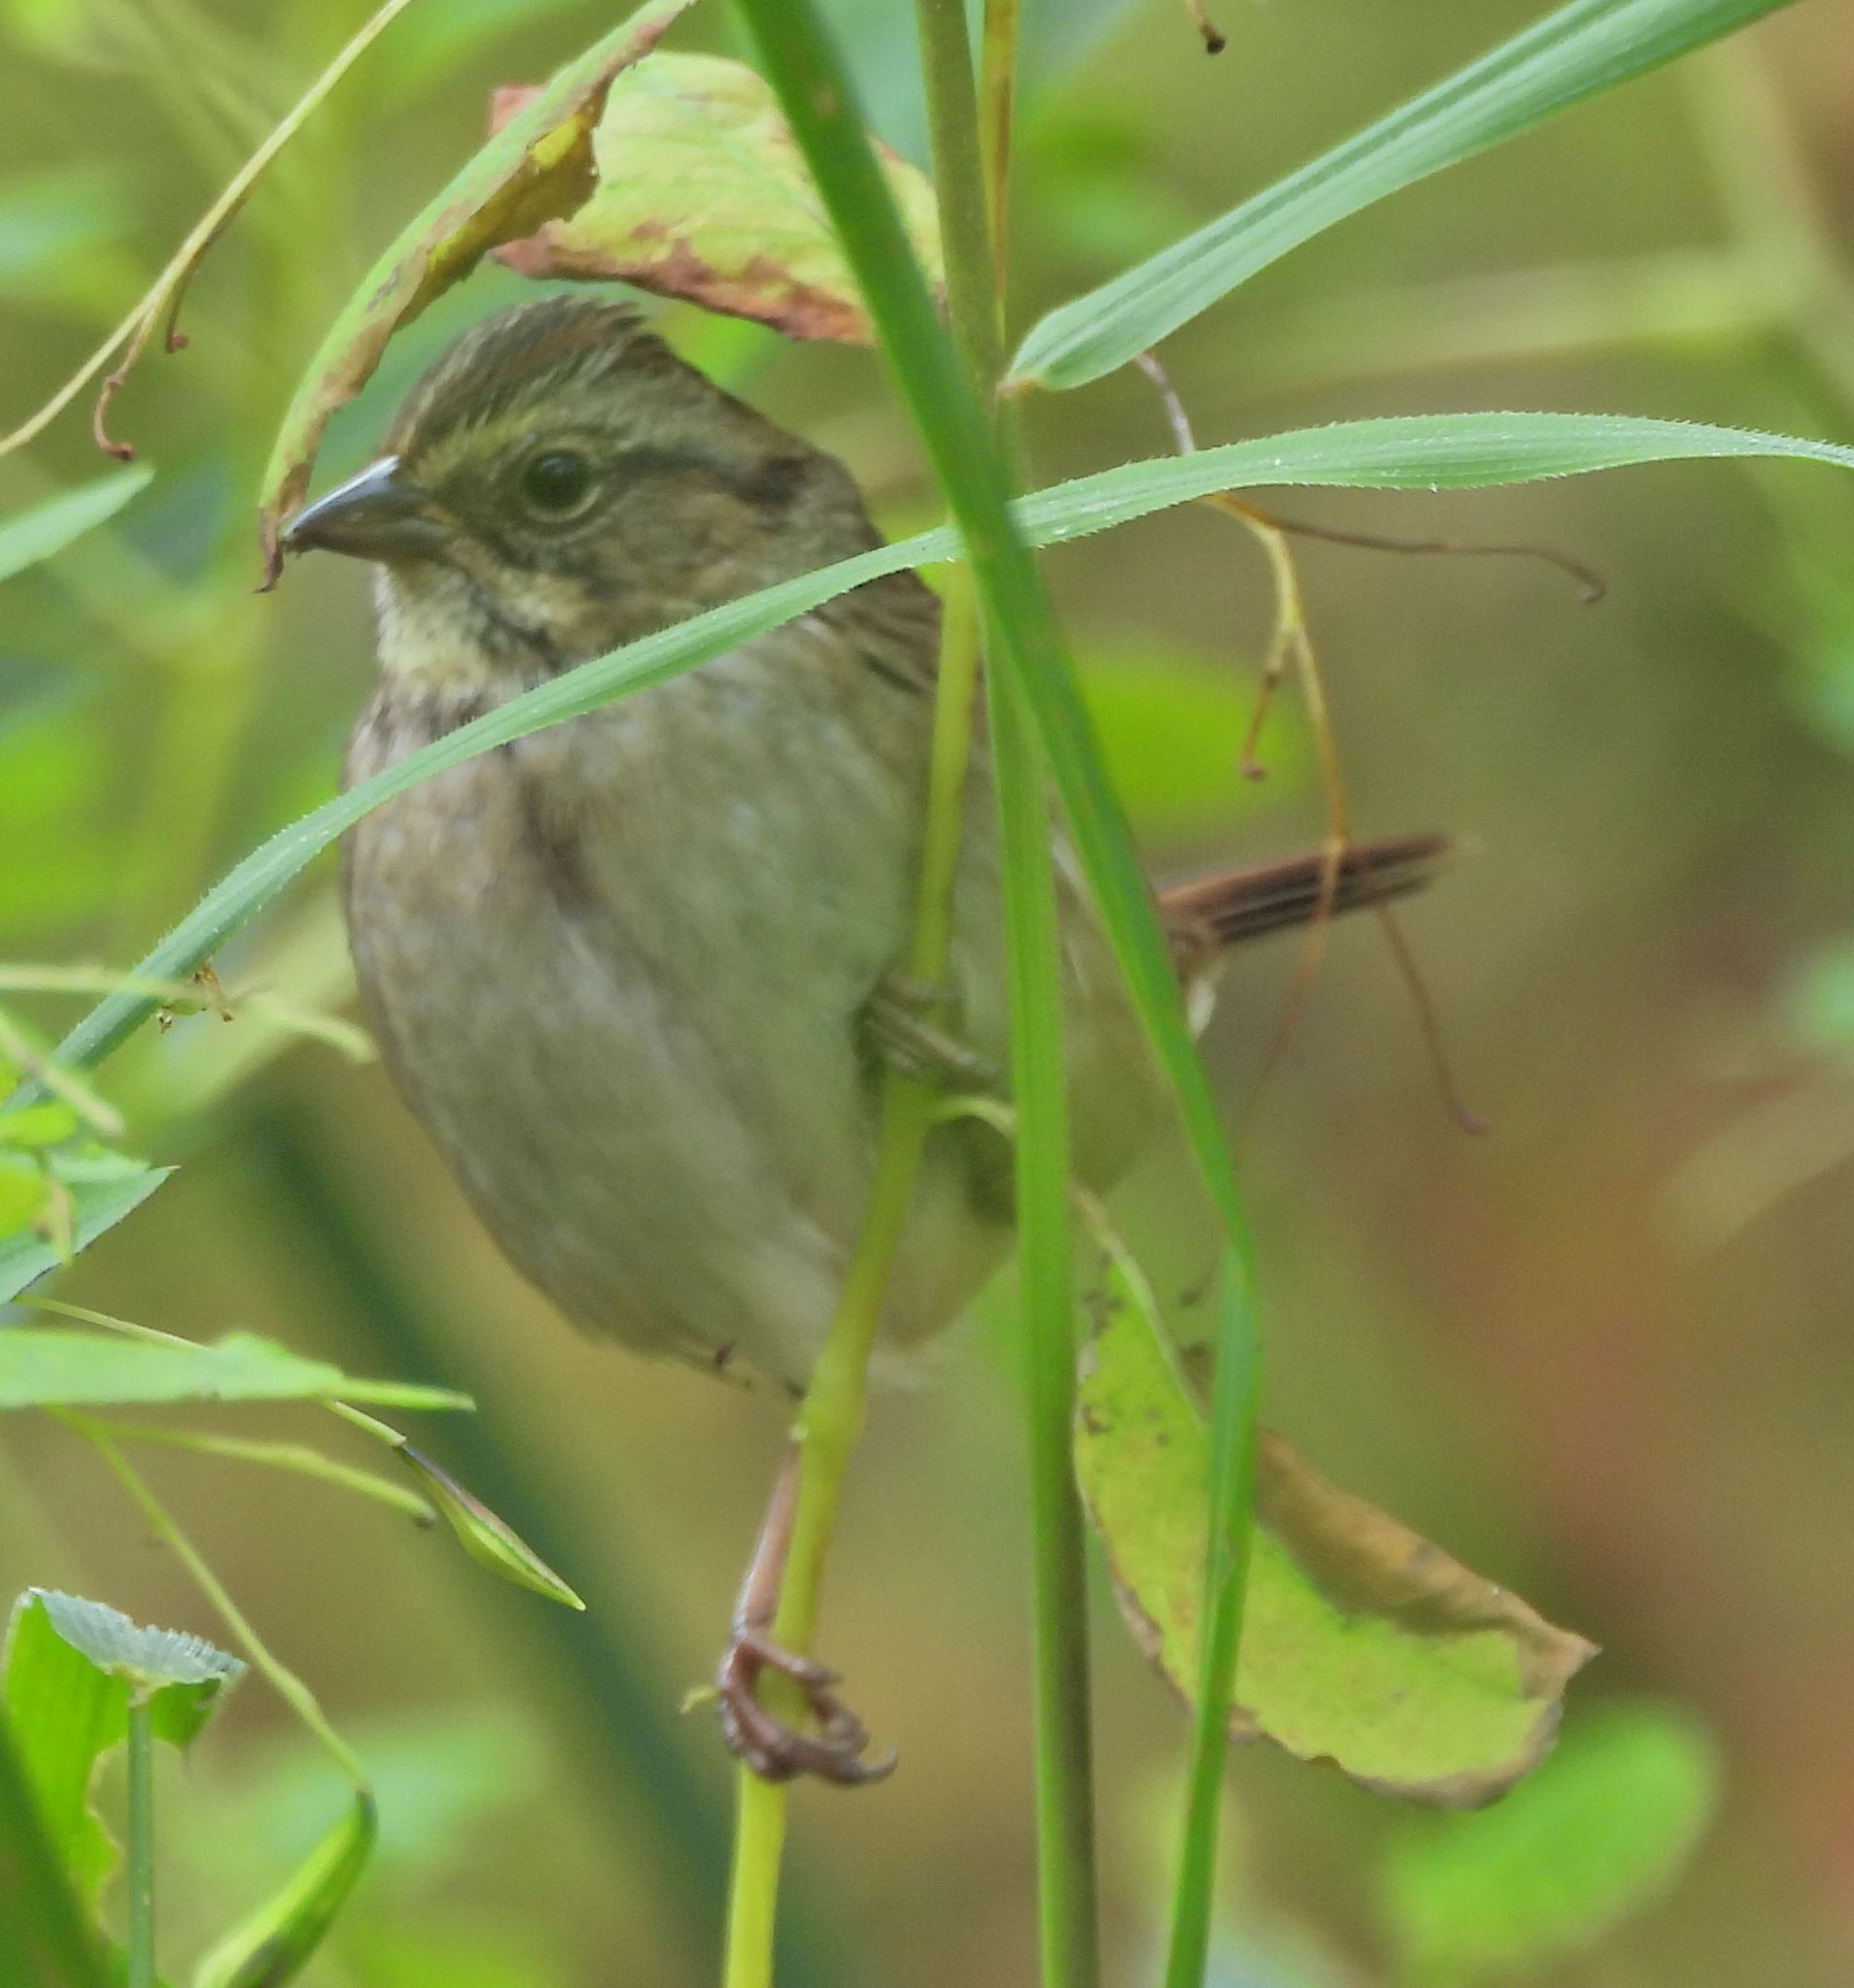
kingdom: Animalia
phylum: Chordata
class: Aves
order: Passeriformes
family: Passerellidae
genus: Melospiza
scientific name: Melospiza georgiana
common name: Swamp sparrow
